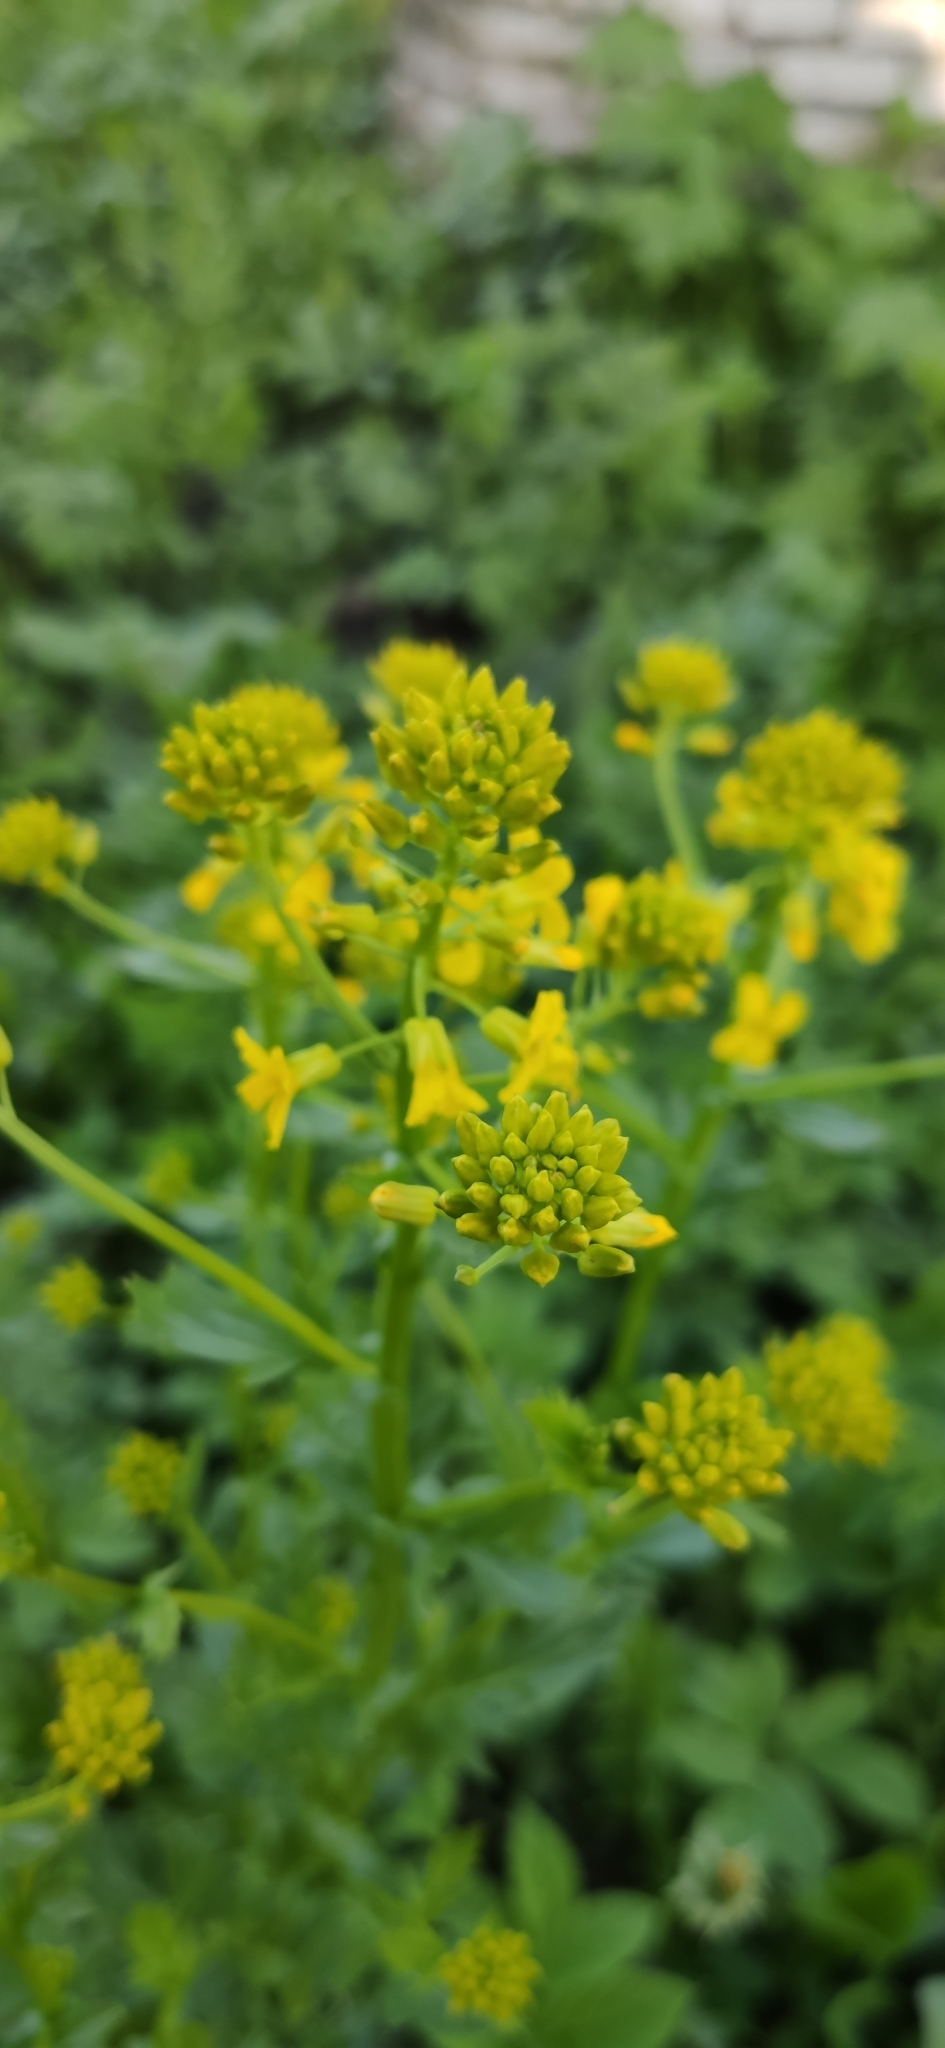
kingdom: Plantae
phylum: Tracheophyta
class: Magnoliopsida
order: Brassicales
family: Brassicaceae
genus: Barbarea
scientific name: Barbarea vulgaris
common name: Cressy-greens
